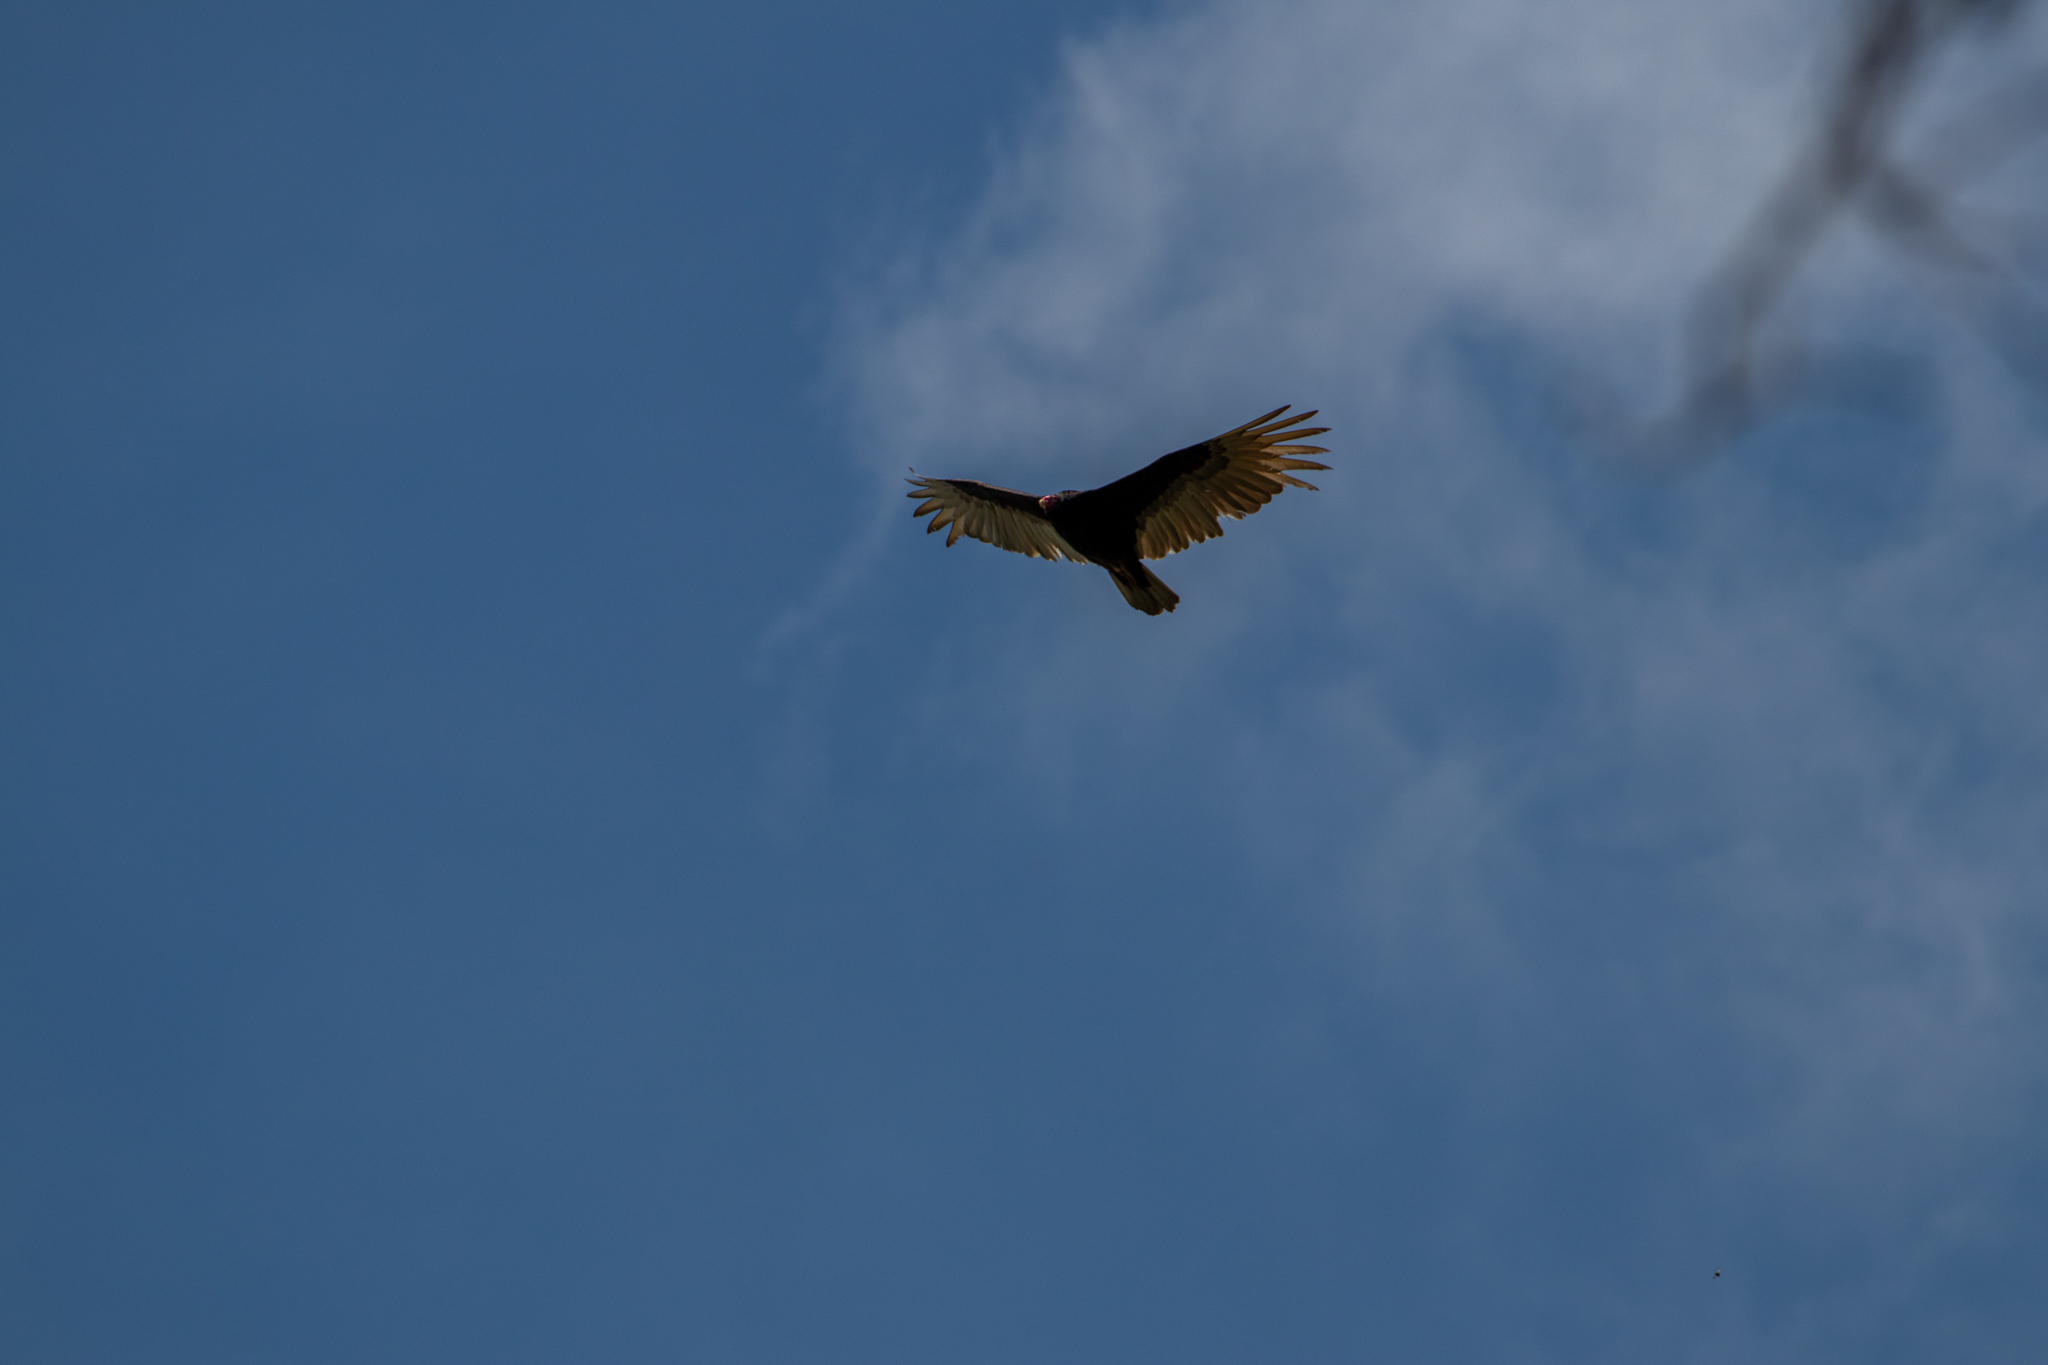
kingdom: Animalia
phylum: Chordata
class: Aves
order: Accipitriformes
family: Cathartidae
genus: Cathartes
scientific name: Cathartes aura
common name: Turkey vulture
